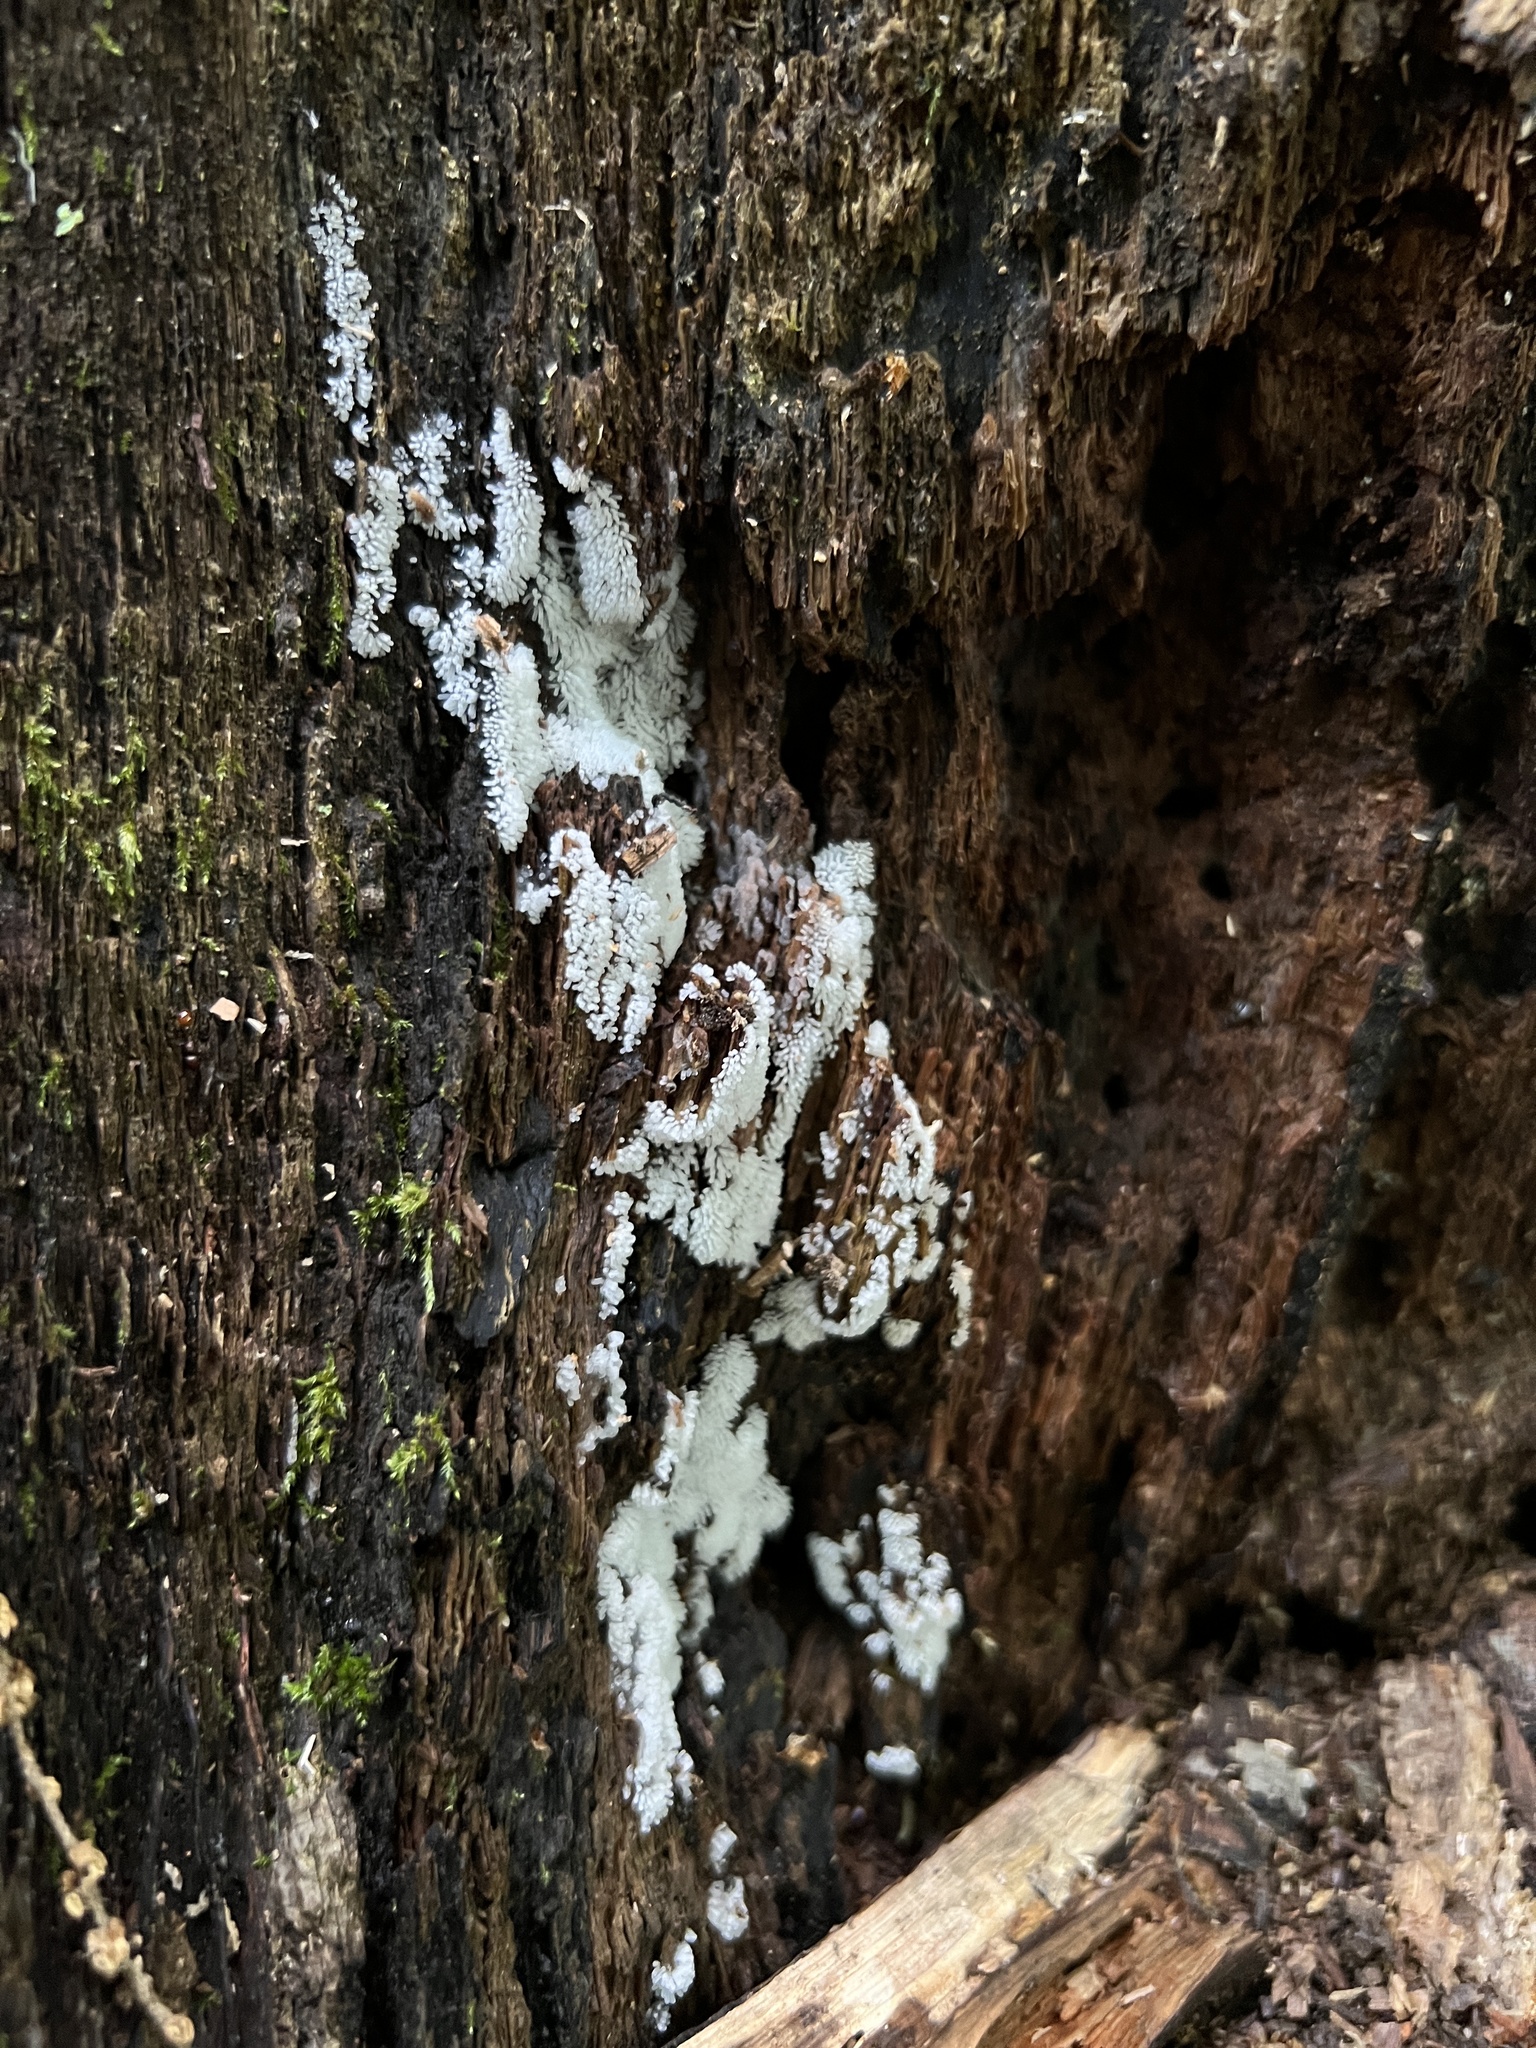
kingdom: Protozoa
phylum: Mycetozoa
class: Protosteliomycetes
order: Ceratiomyxales
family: Ceratiomyxaceae
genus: Ceratiomyxa
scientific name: Ceratiomyxa fruticulosa
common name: Honeycomb coral slime mold
